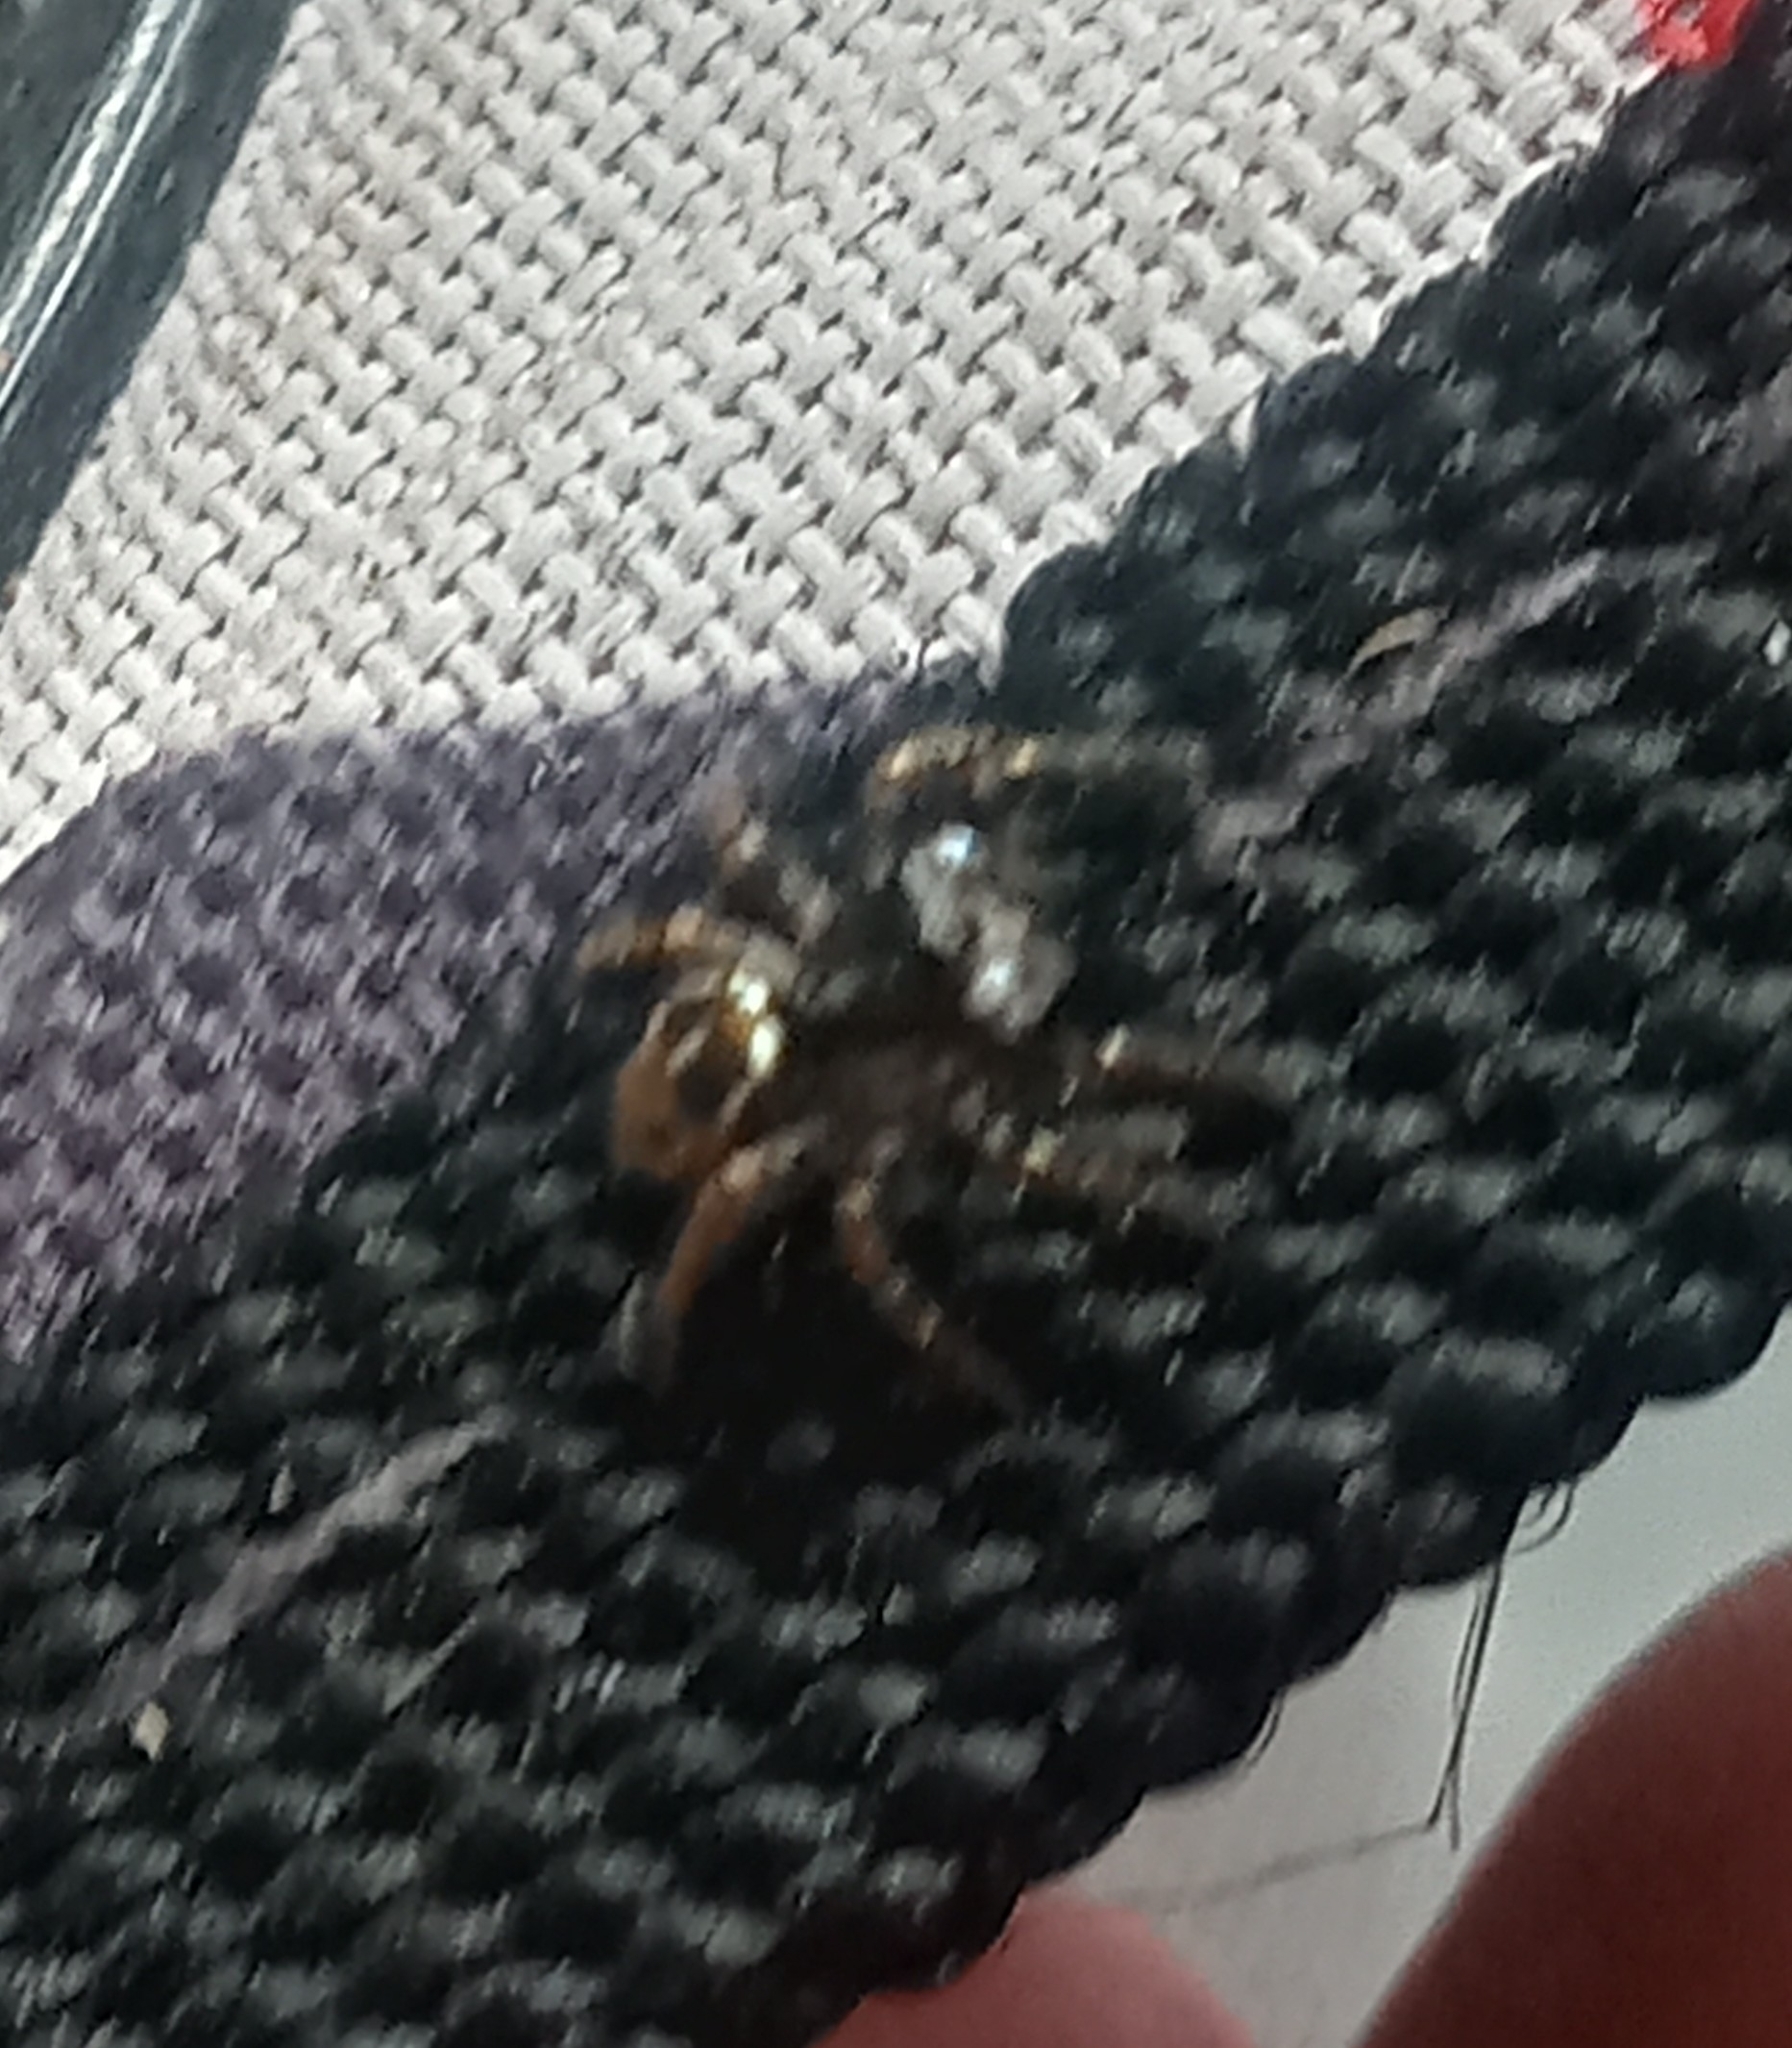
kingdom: Animalia
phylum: Arthropoda
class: Arachnida
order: Araneae
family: Salticidae
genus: Anasaitis
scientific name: Anasaitis canosa
